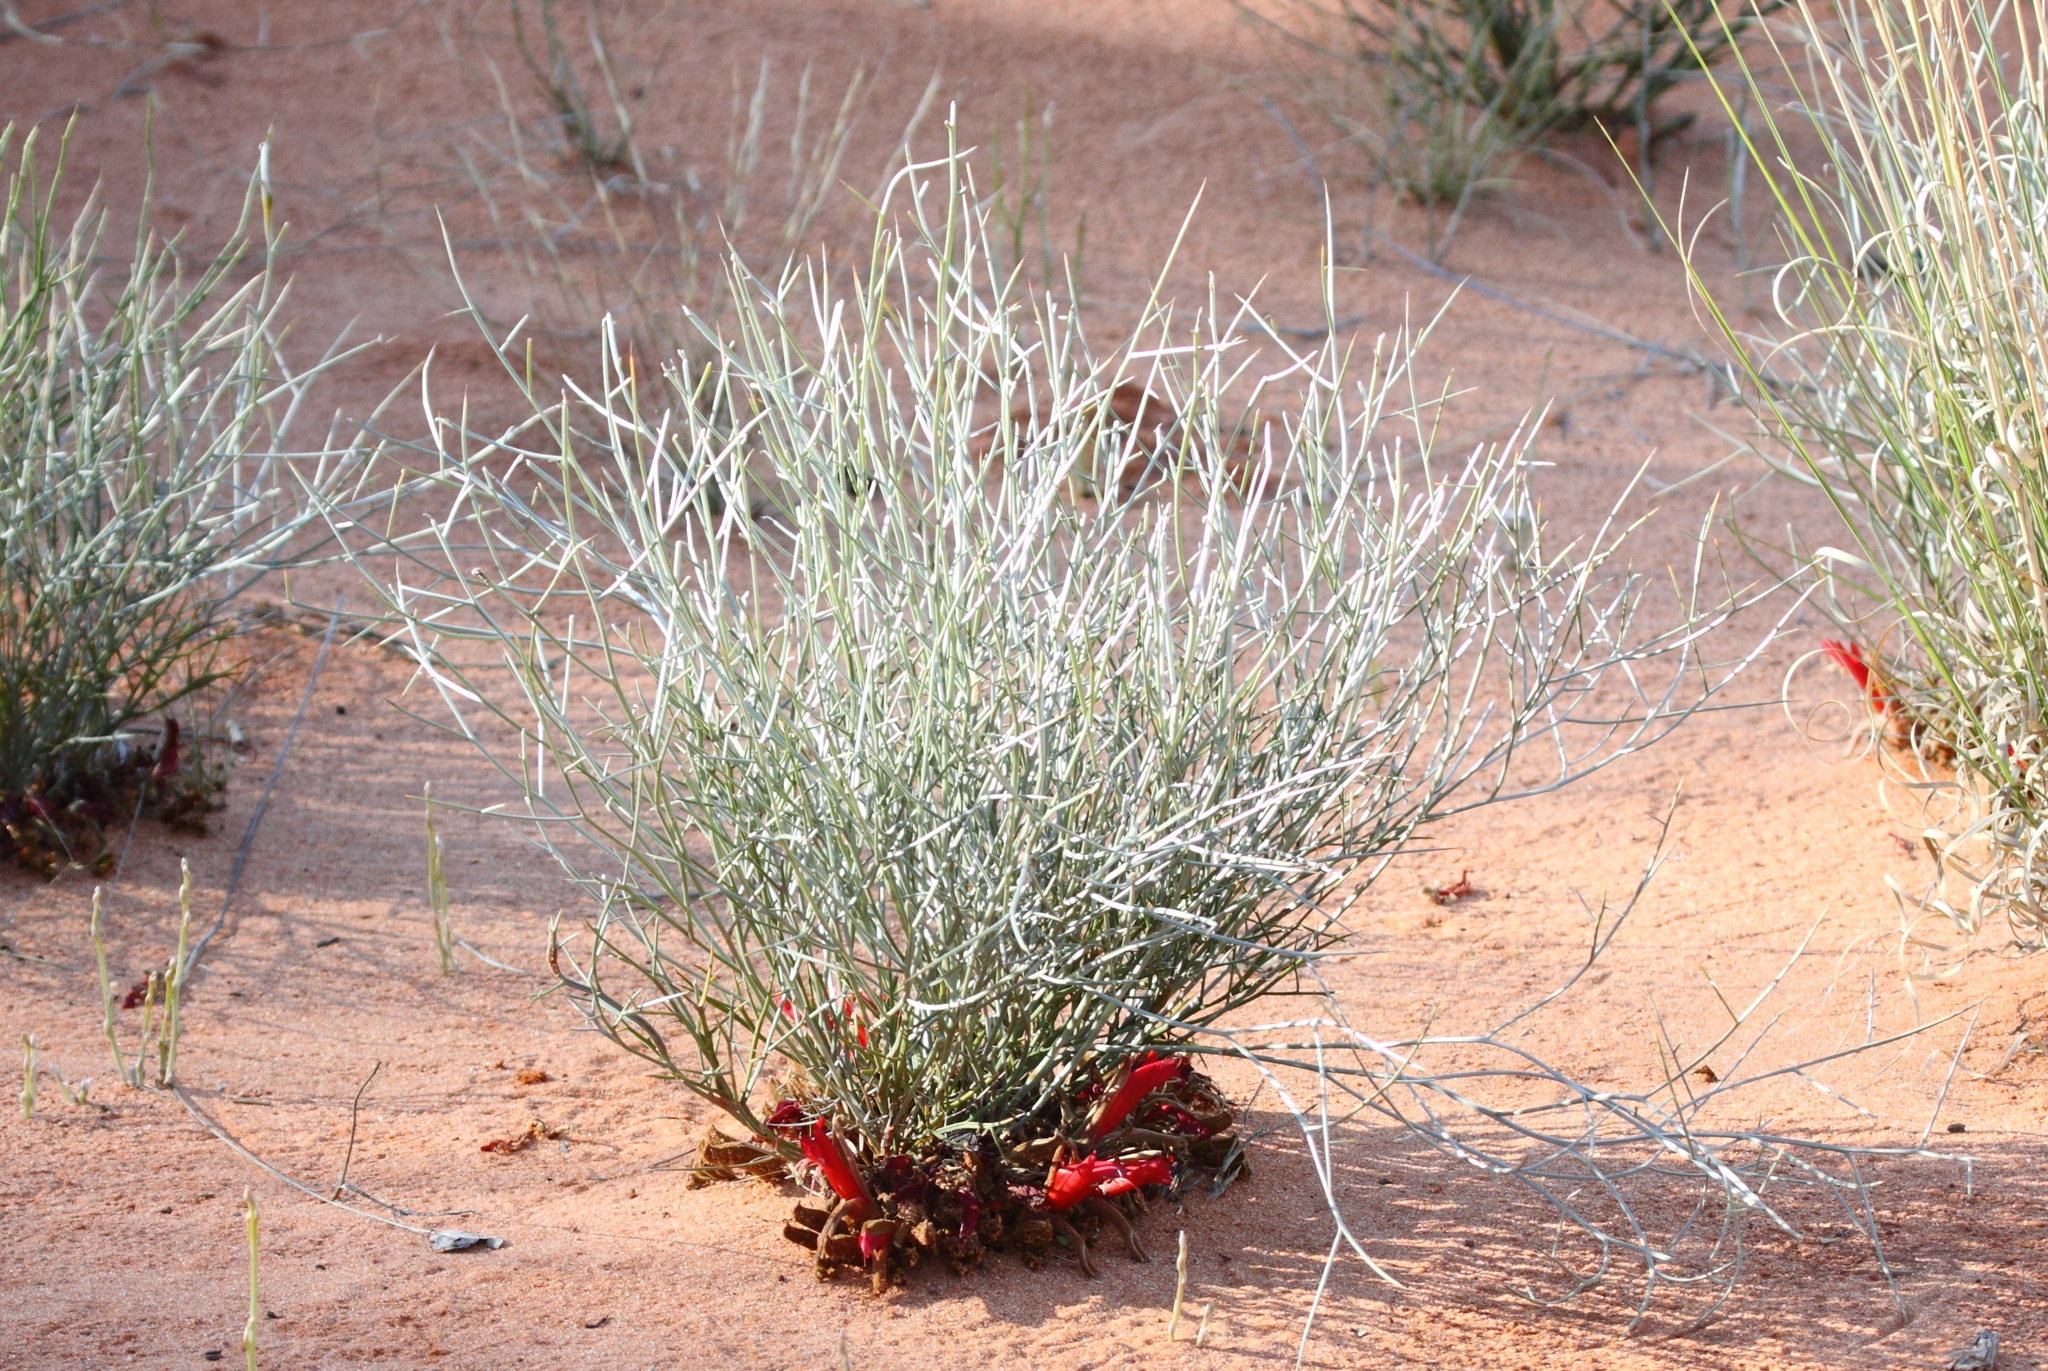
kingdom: Plantae
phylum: Tracheophyta
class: Magnoliopsida
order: Fabales
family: Fabaceae
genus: Leptosema
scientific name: Leptosema chambersii
